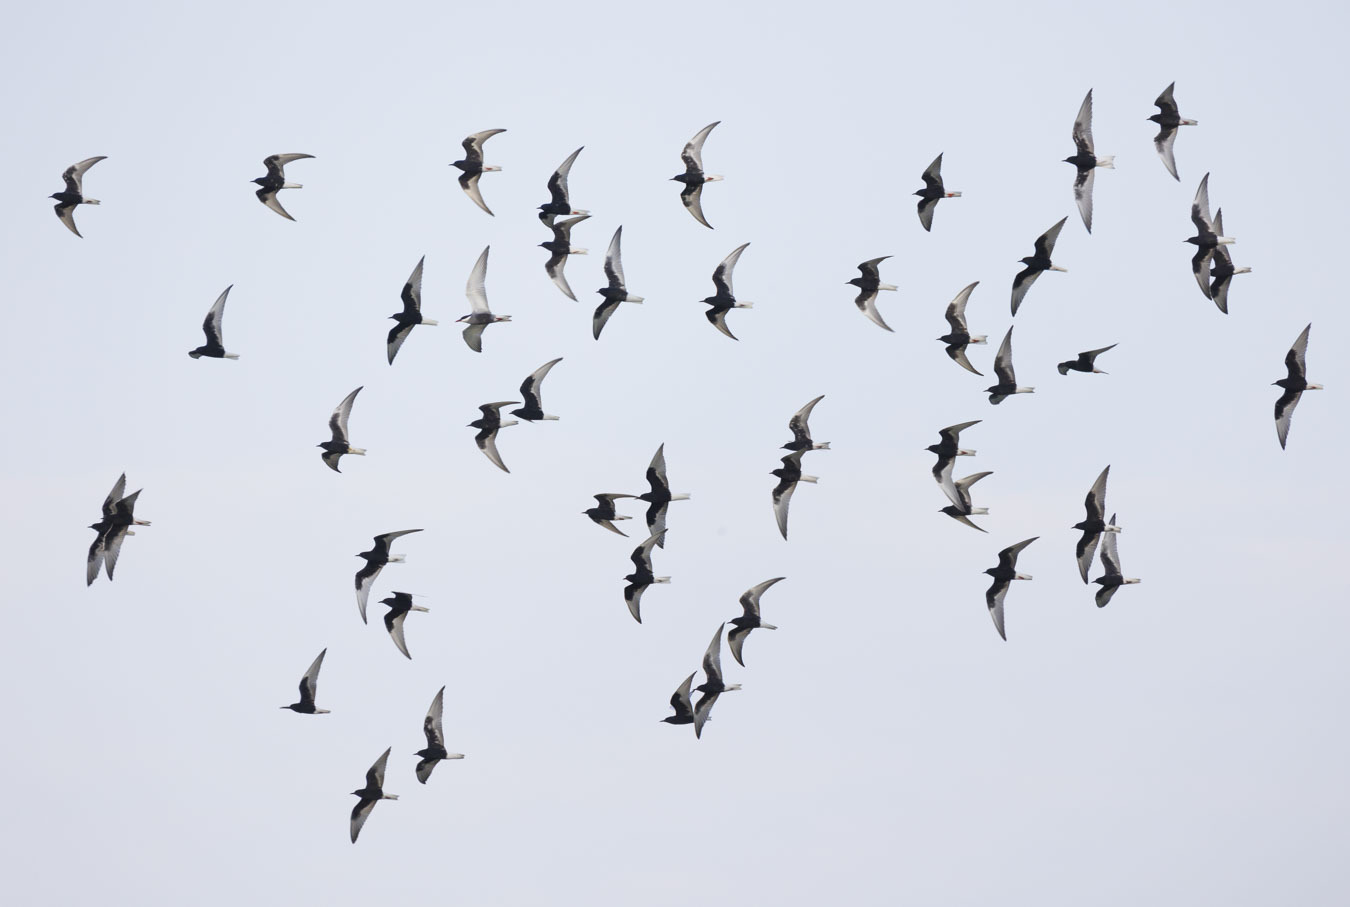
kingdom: Animalia
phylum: Chordata
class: Aves
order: Charadriiformes
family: Laridae
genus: Chlidonias
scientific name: Chlidonias leucopterus
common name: White-winged tern
